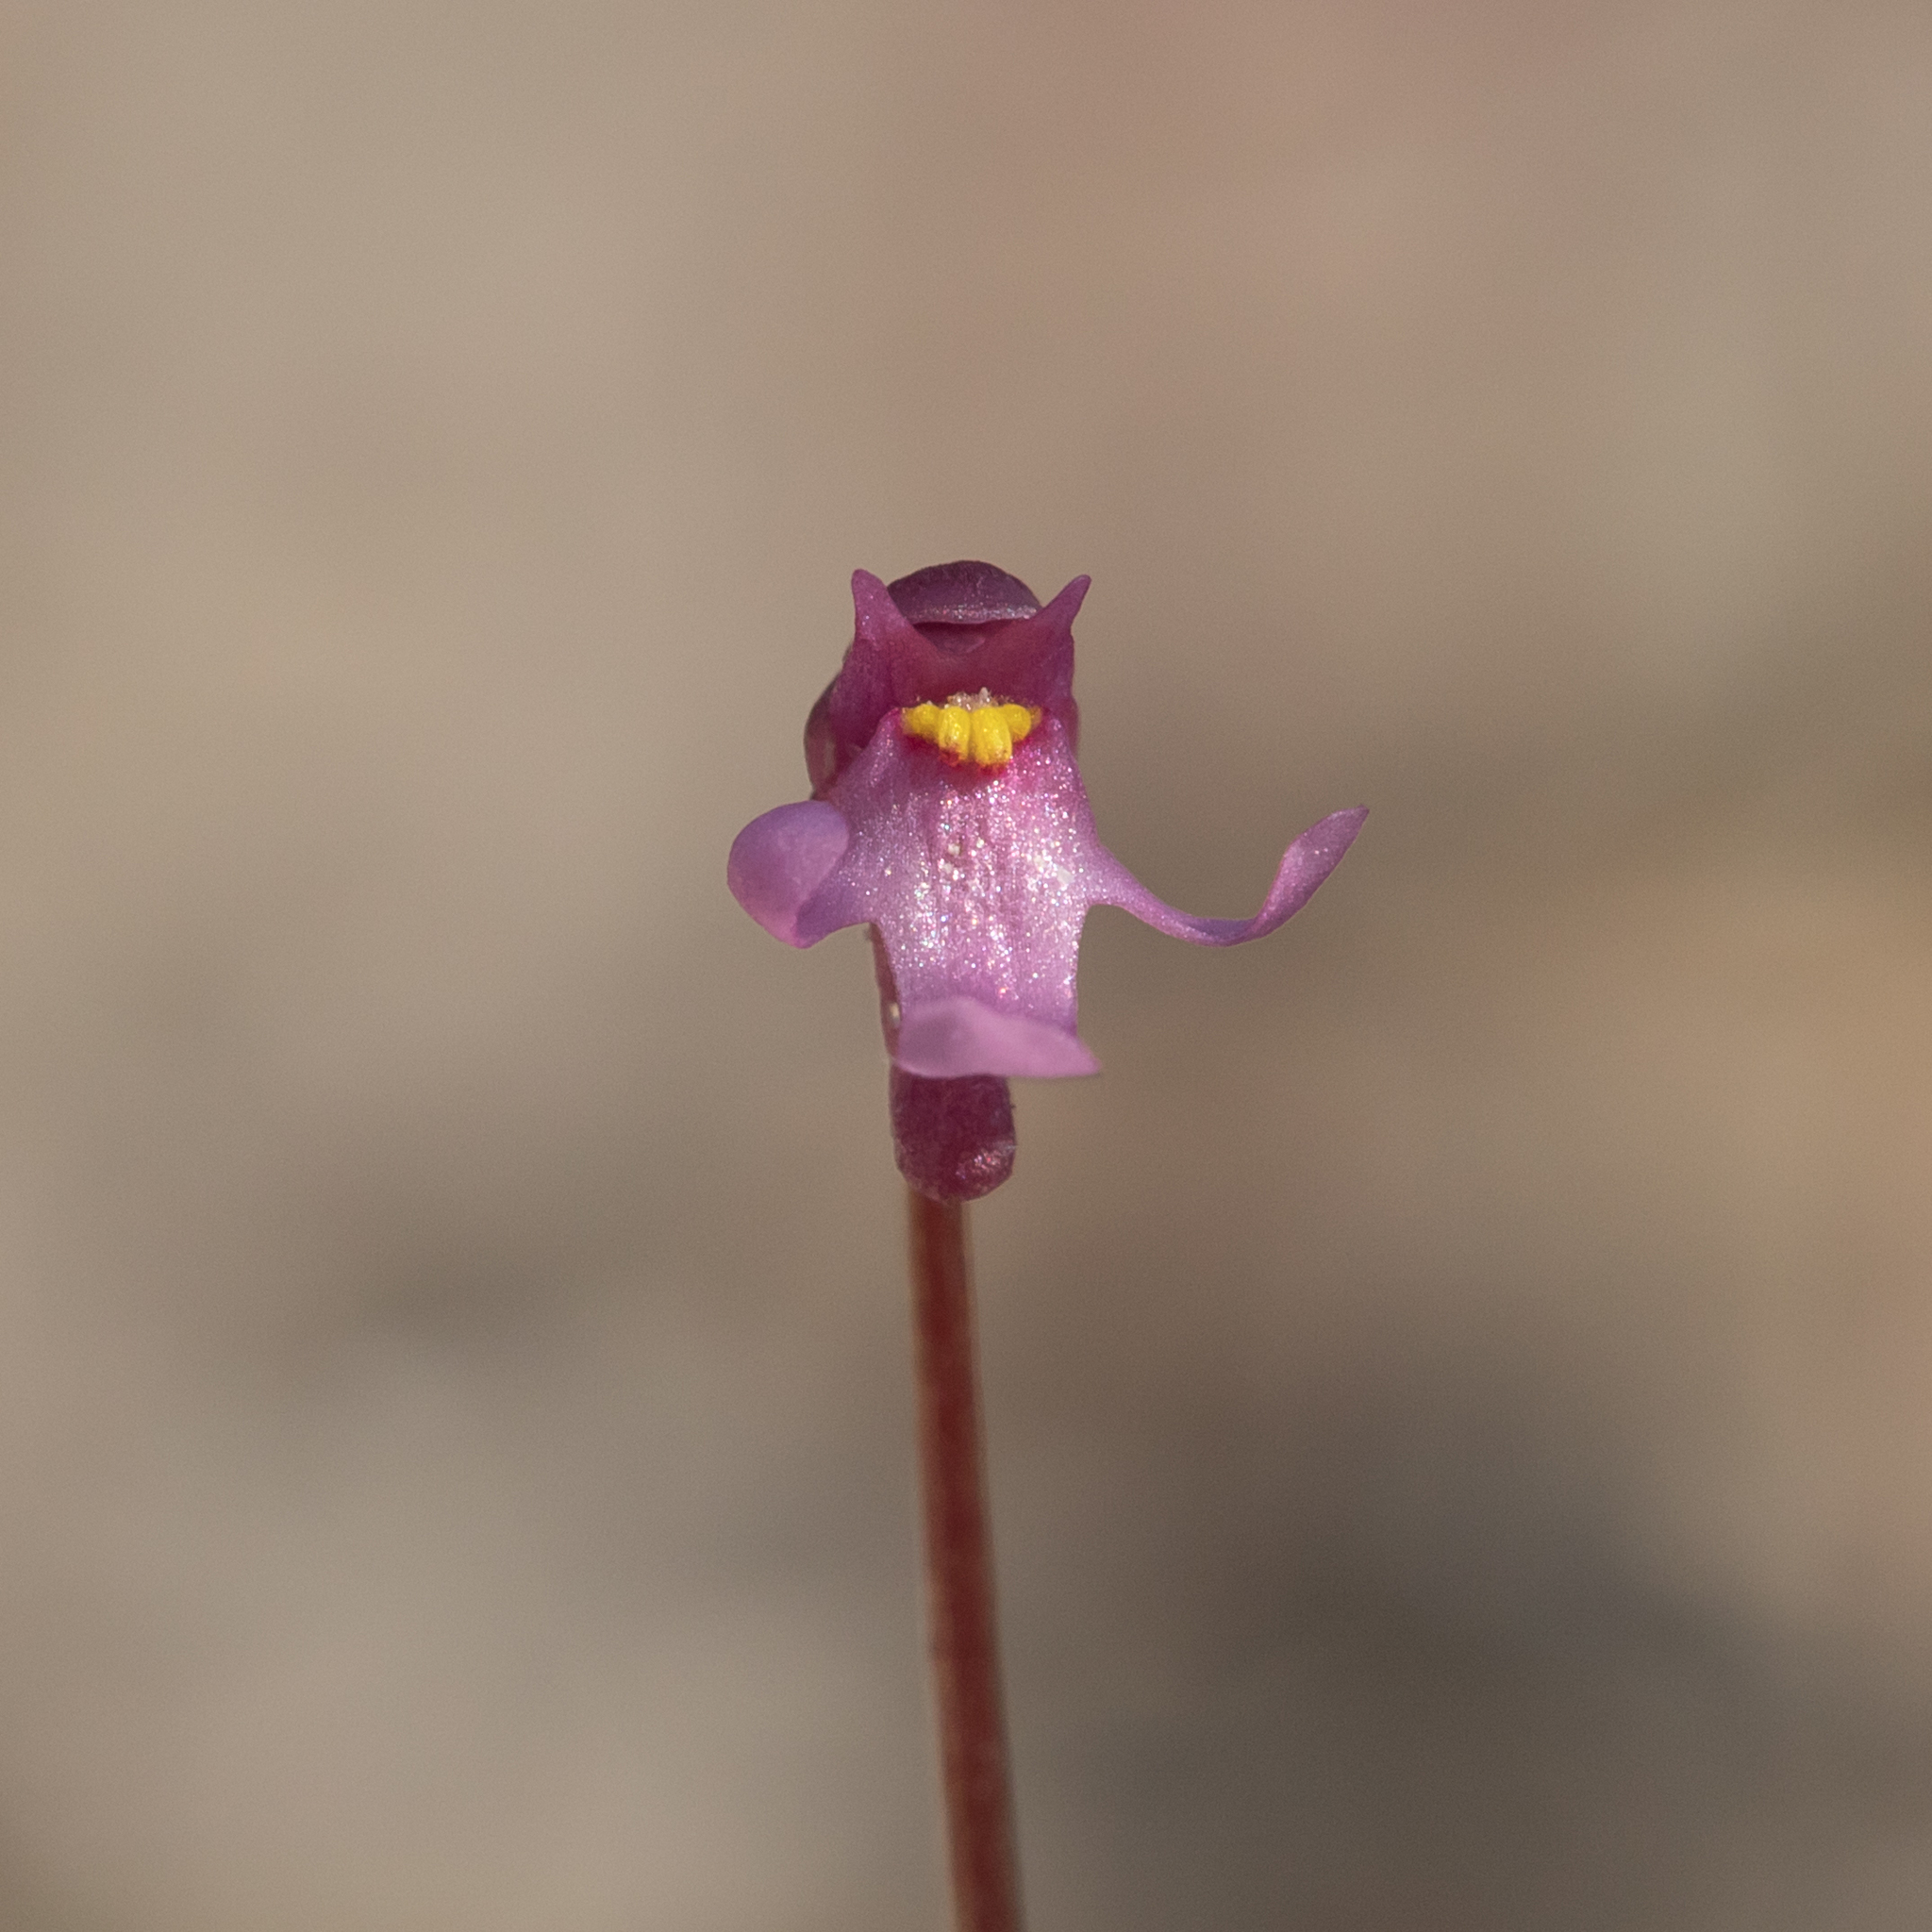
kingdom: Plantae
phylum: Tracheophyta
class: Magnoliopsida
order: Lamiales
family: Lentibulariaceae
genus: Utricularia
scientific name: Utricularia tenella
